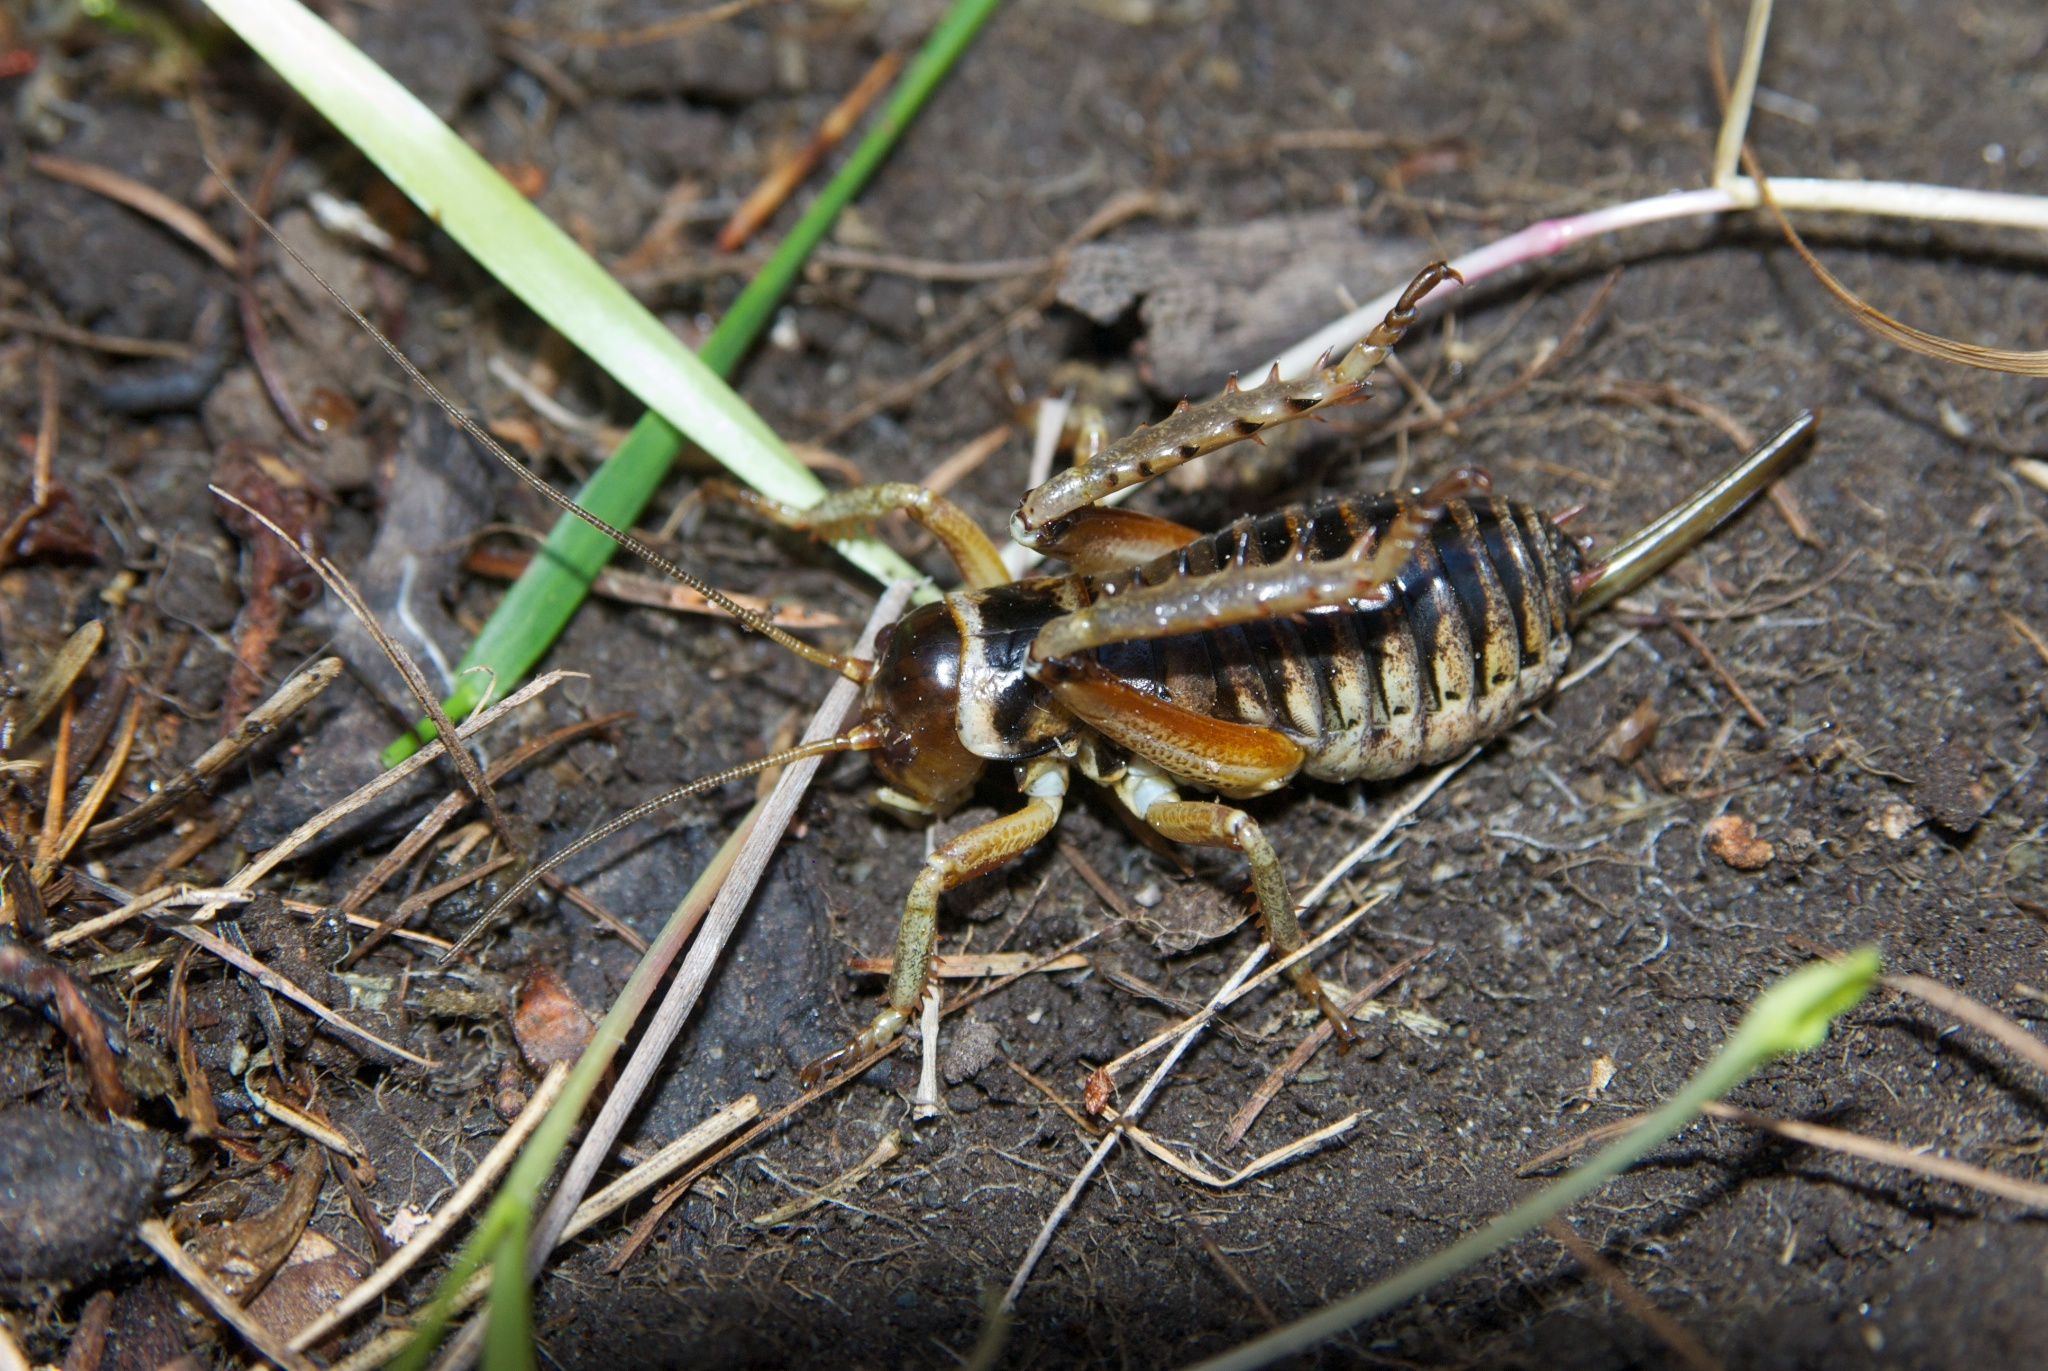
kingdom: Animalia
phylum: Arthropoda
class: Insecta
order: Orthoptera
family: Anostostomatidae
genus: Hemideina
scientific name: Hemideina maori
